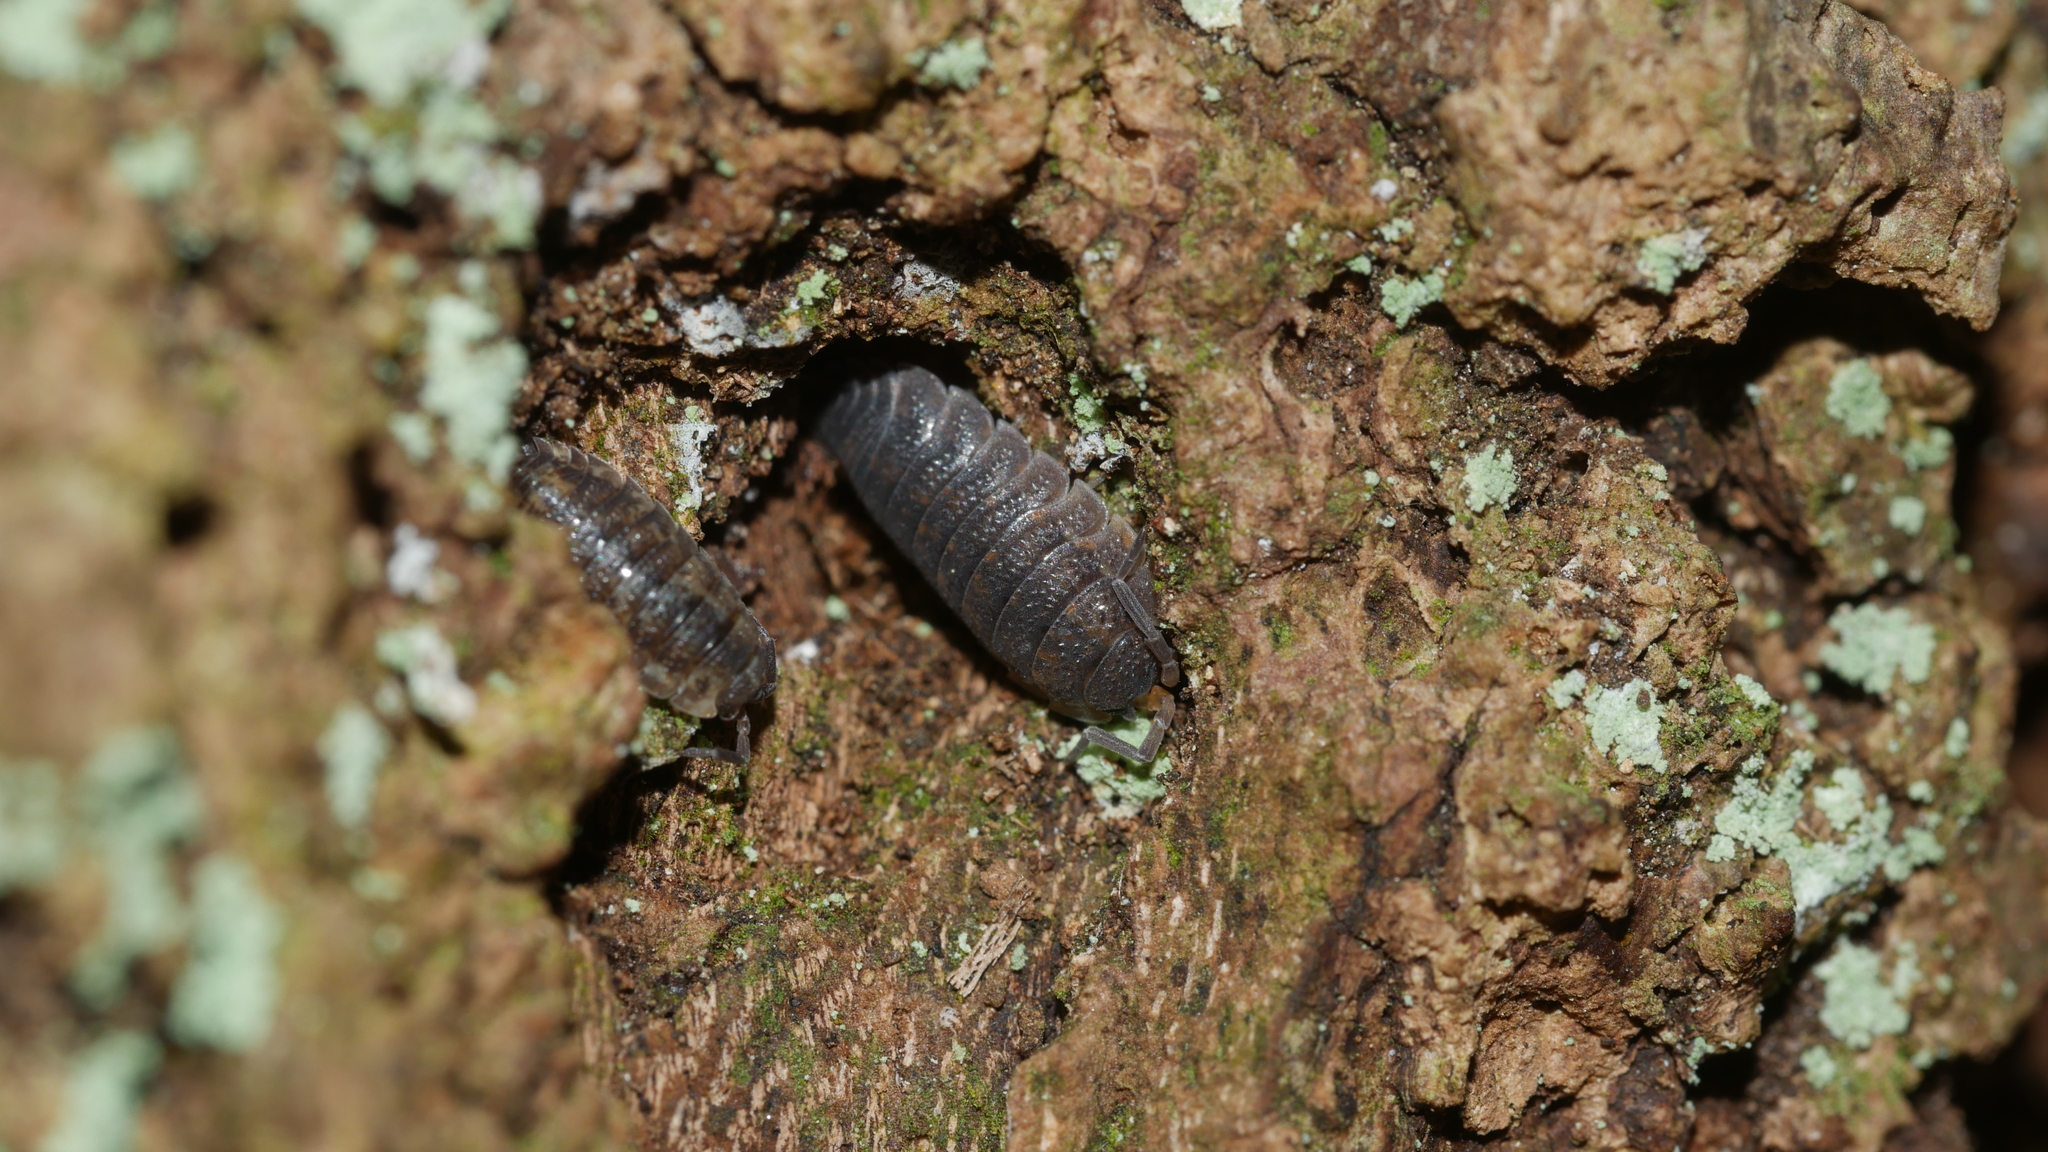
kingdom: Animalia
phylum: Arthropoda
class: Malacostraca
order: Isopoda
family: Porcellionidae
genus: Porcellio
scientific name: Porcellio scaber
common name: Common rough woodlouse
